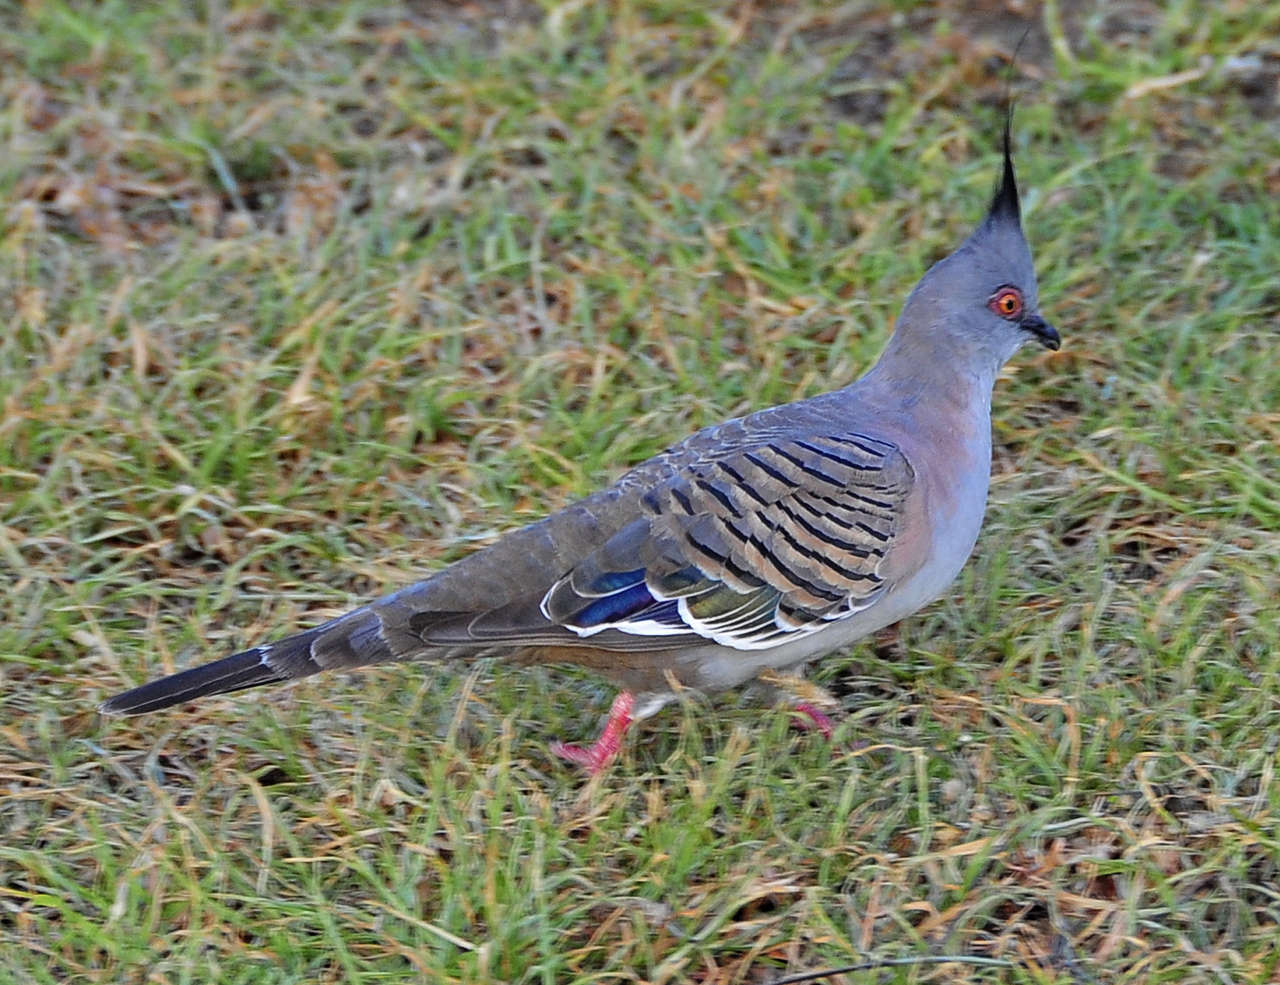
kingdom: Animalia
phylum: Chordata
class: Aves
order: Columbiformes
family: Columbidae
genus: Ocyphaps
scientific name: Ocyphaps lophotes
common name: Crested pigeon
